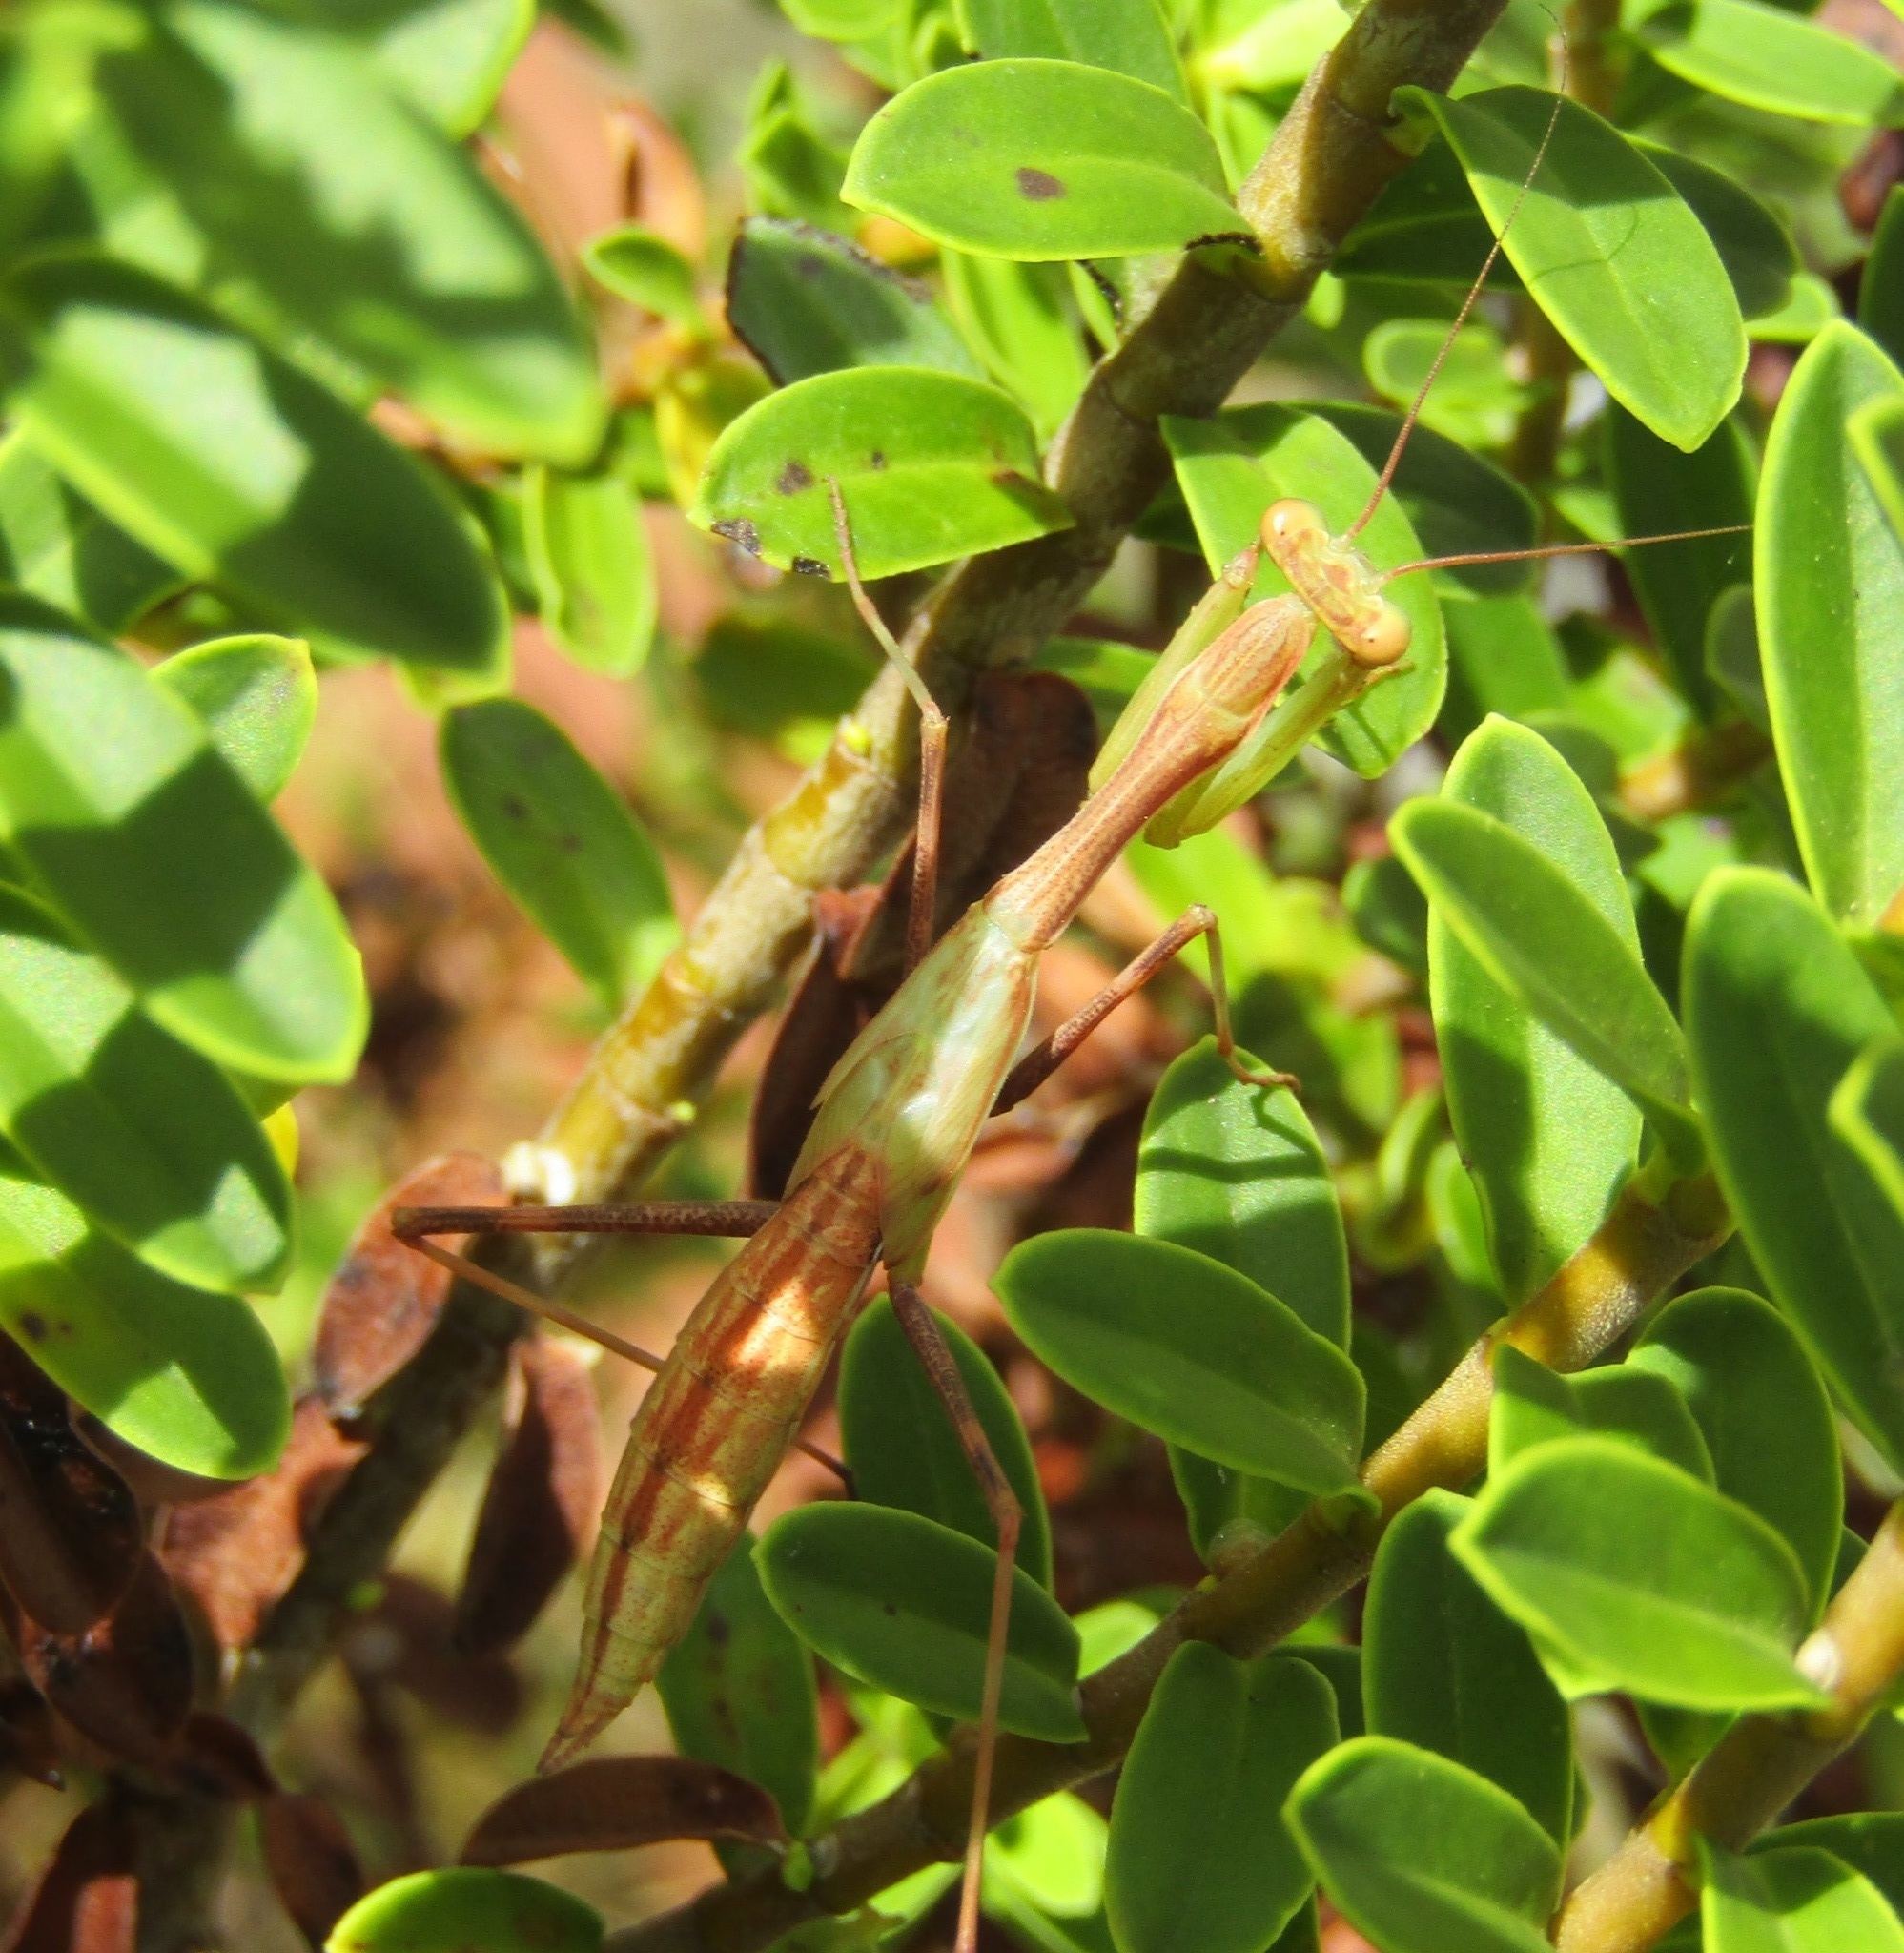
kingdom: Animalia
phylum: Arthropoda
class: Insecta
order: Mantodea
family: Miomantidae
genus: Miomantis
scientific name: Miomantis caffra
